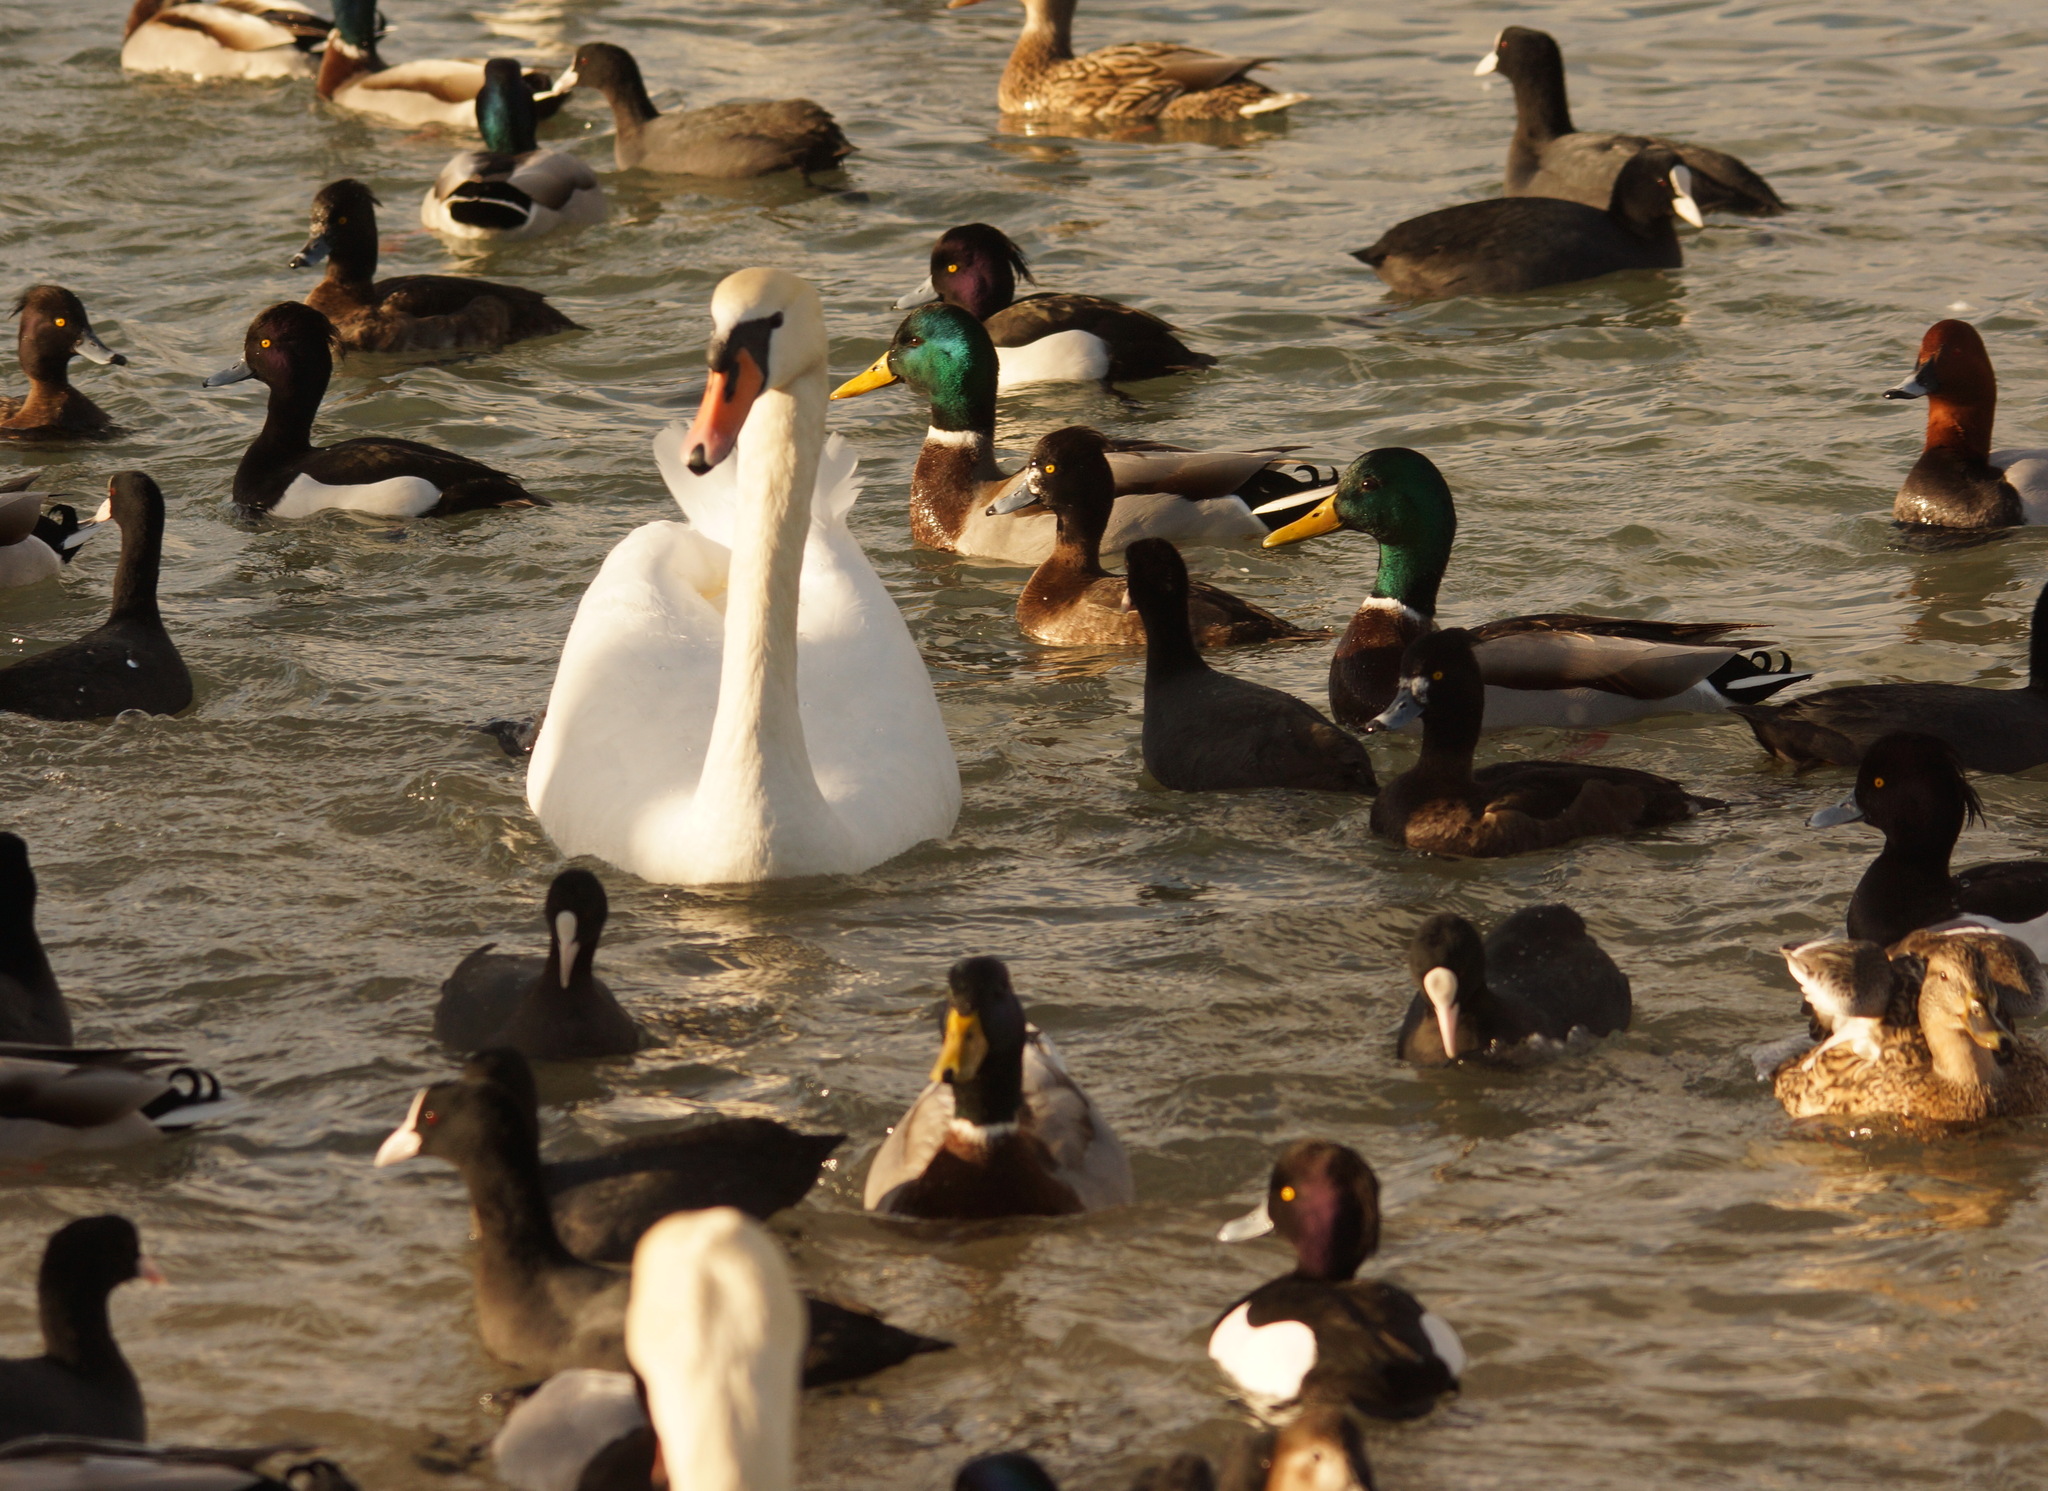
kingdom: Animalia
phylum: Chordata
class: Aves
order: Anseriformes
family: Anatidae
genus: Cygnus
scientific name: Cygnus olor
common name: Mute swan
